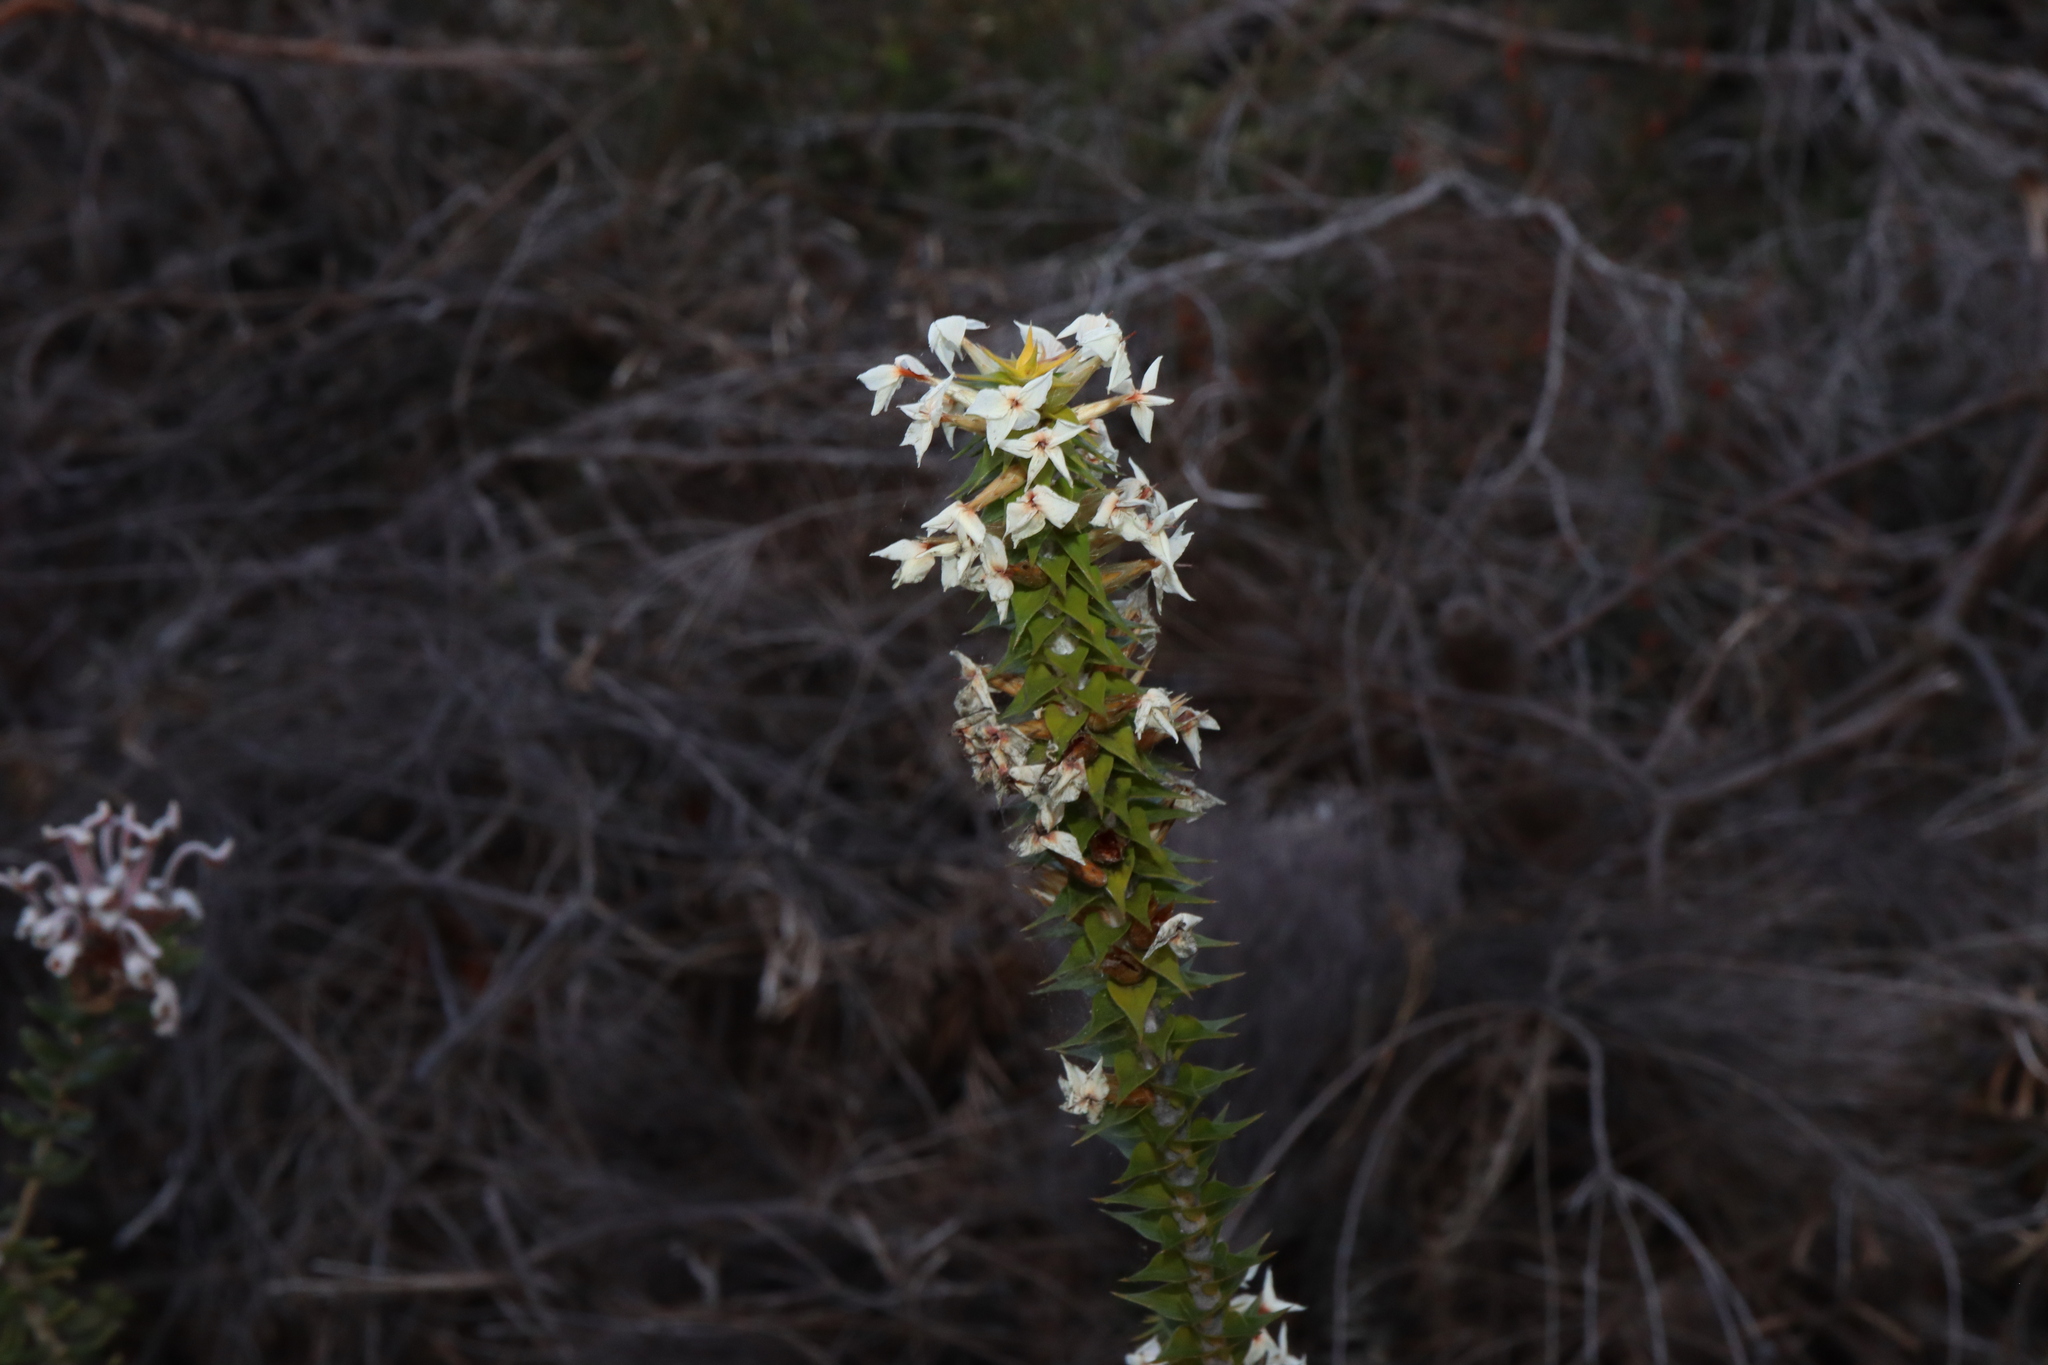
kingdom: Plantae
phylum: Tracheophyta
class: Magnoliopsida
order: Ericales
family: Ericaceae
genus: Woollsia
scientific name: Woollsia pungens
